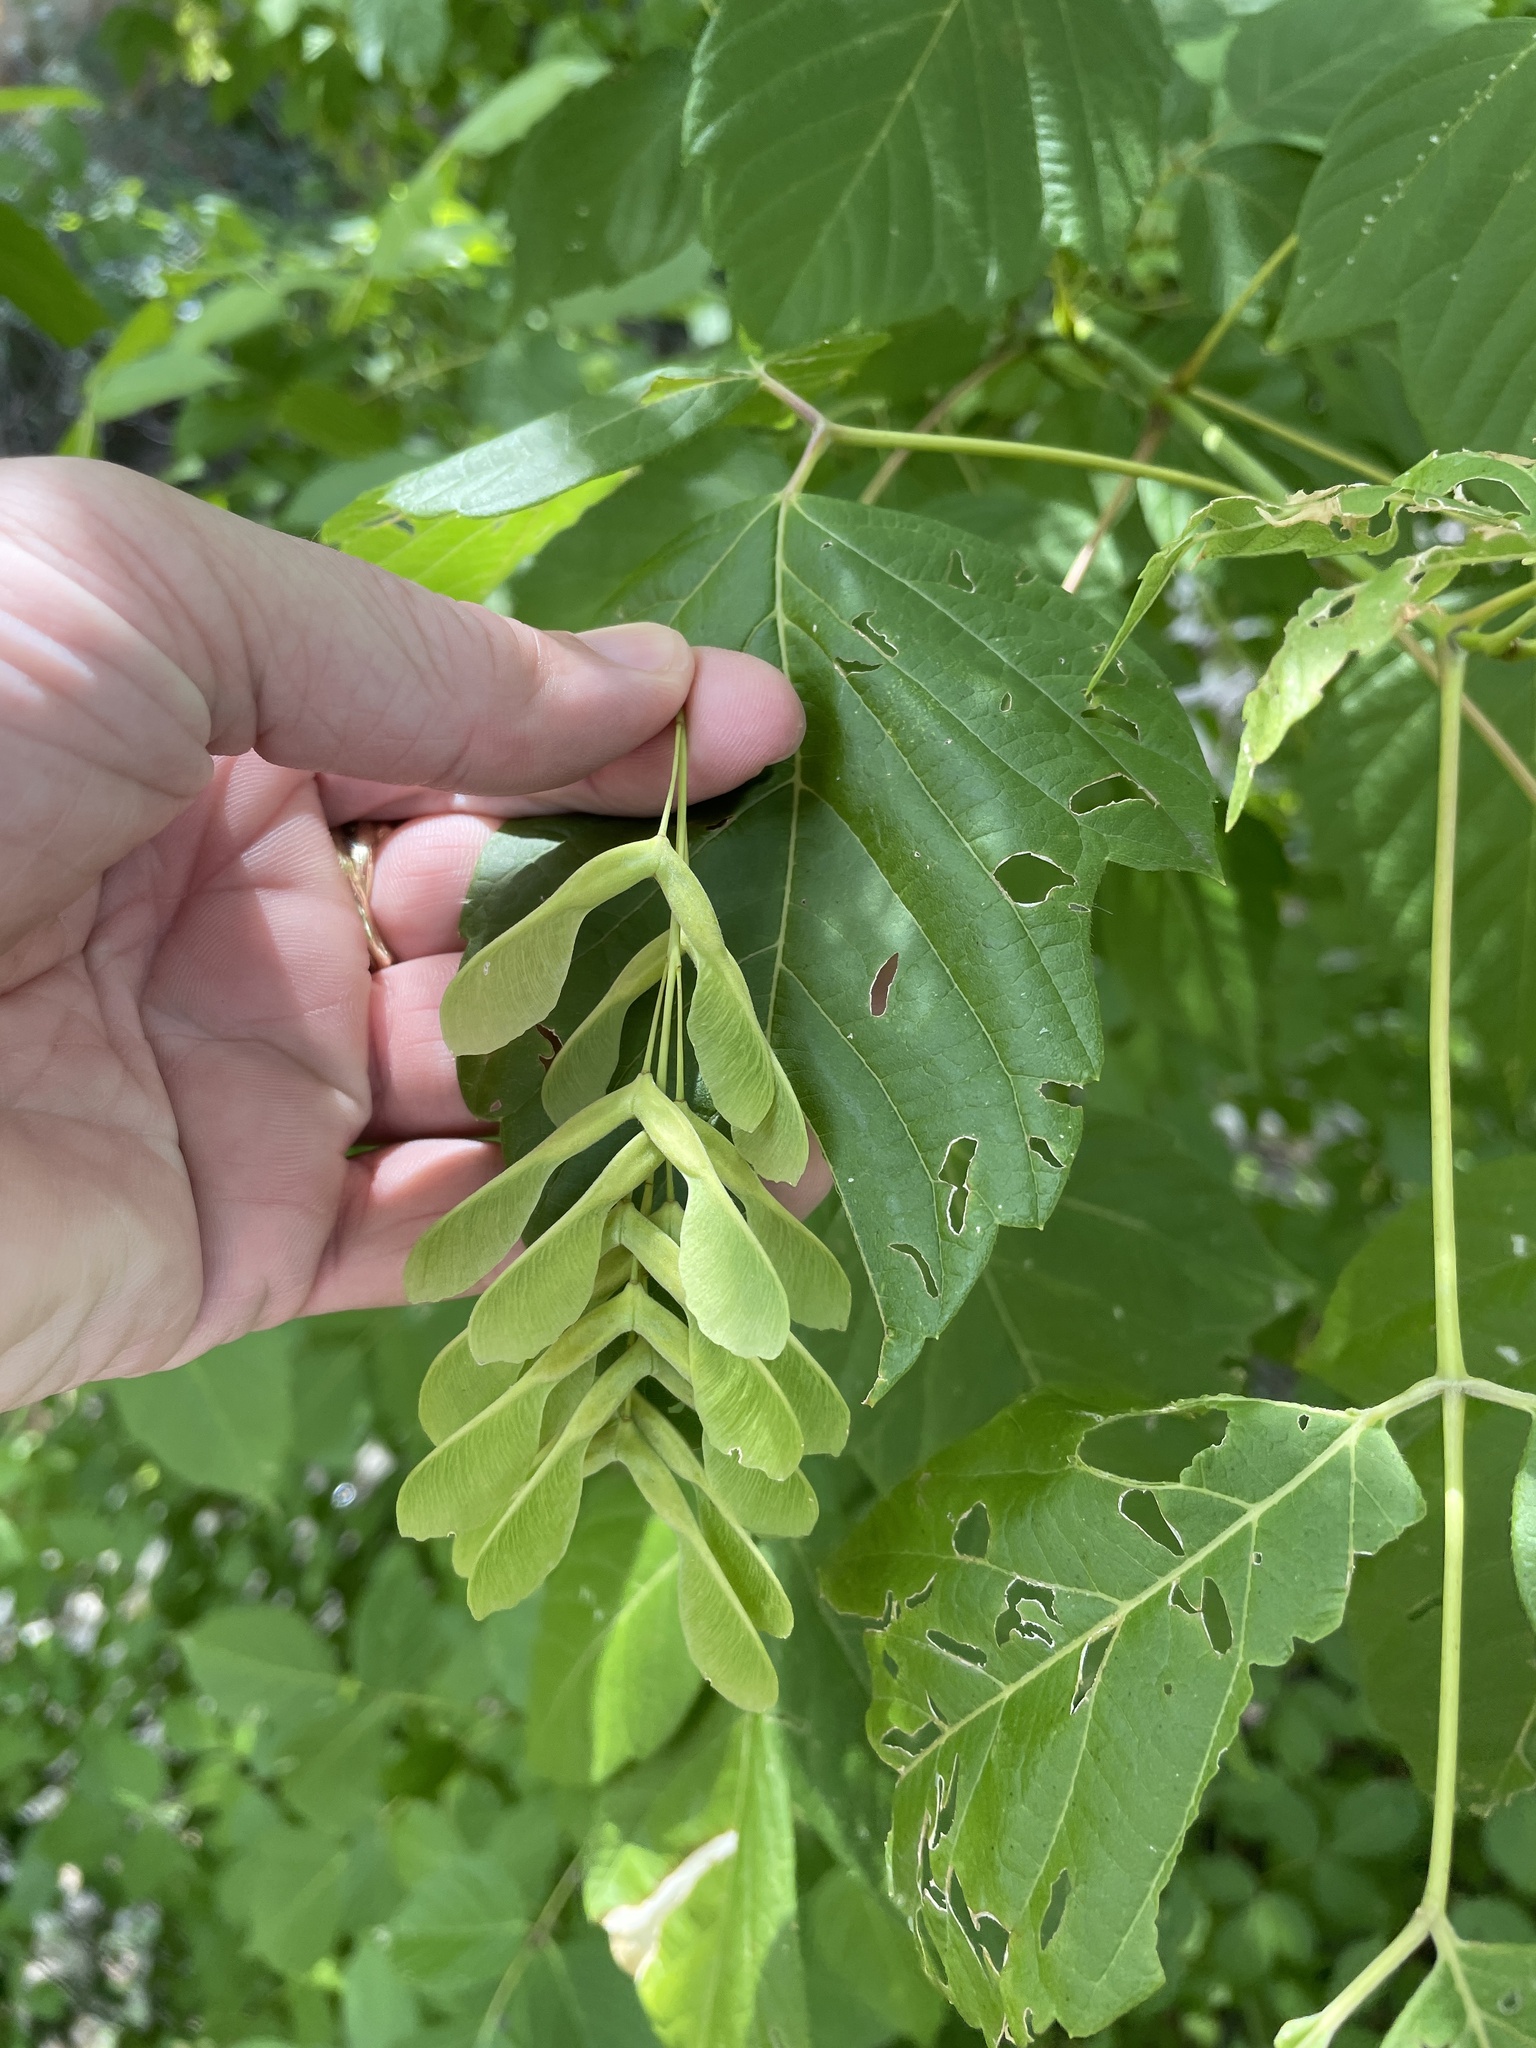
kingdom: Plantae
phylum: Tracheophyta
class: Magnoliopsida
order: Sapindales
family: Sapindaceae
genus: Acer
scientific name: Acer negundo
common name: Ashleaf maple
